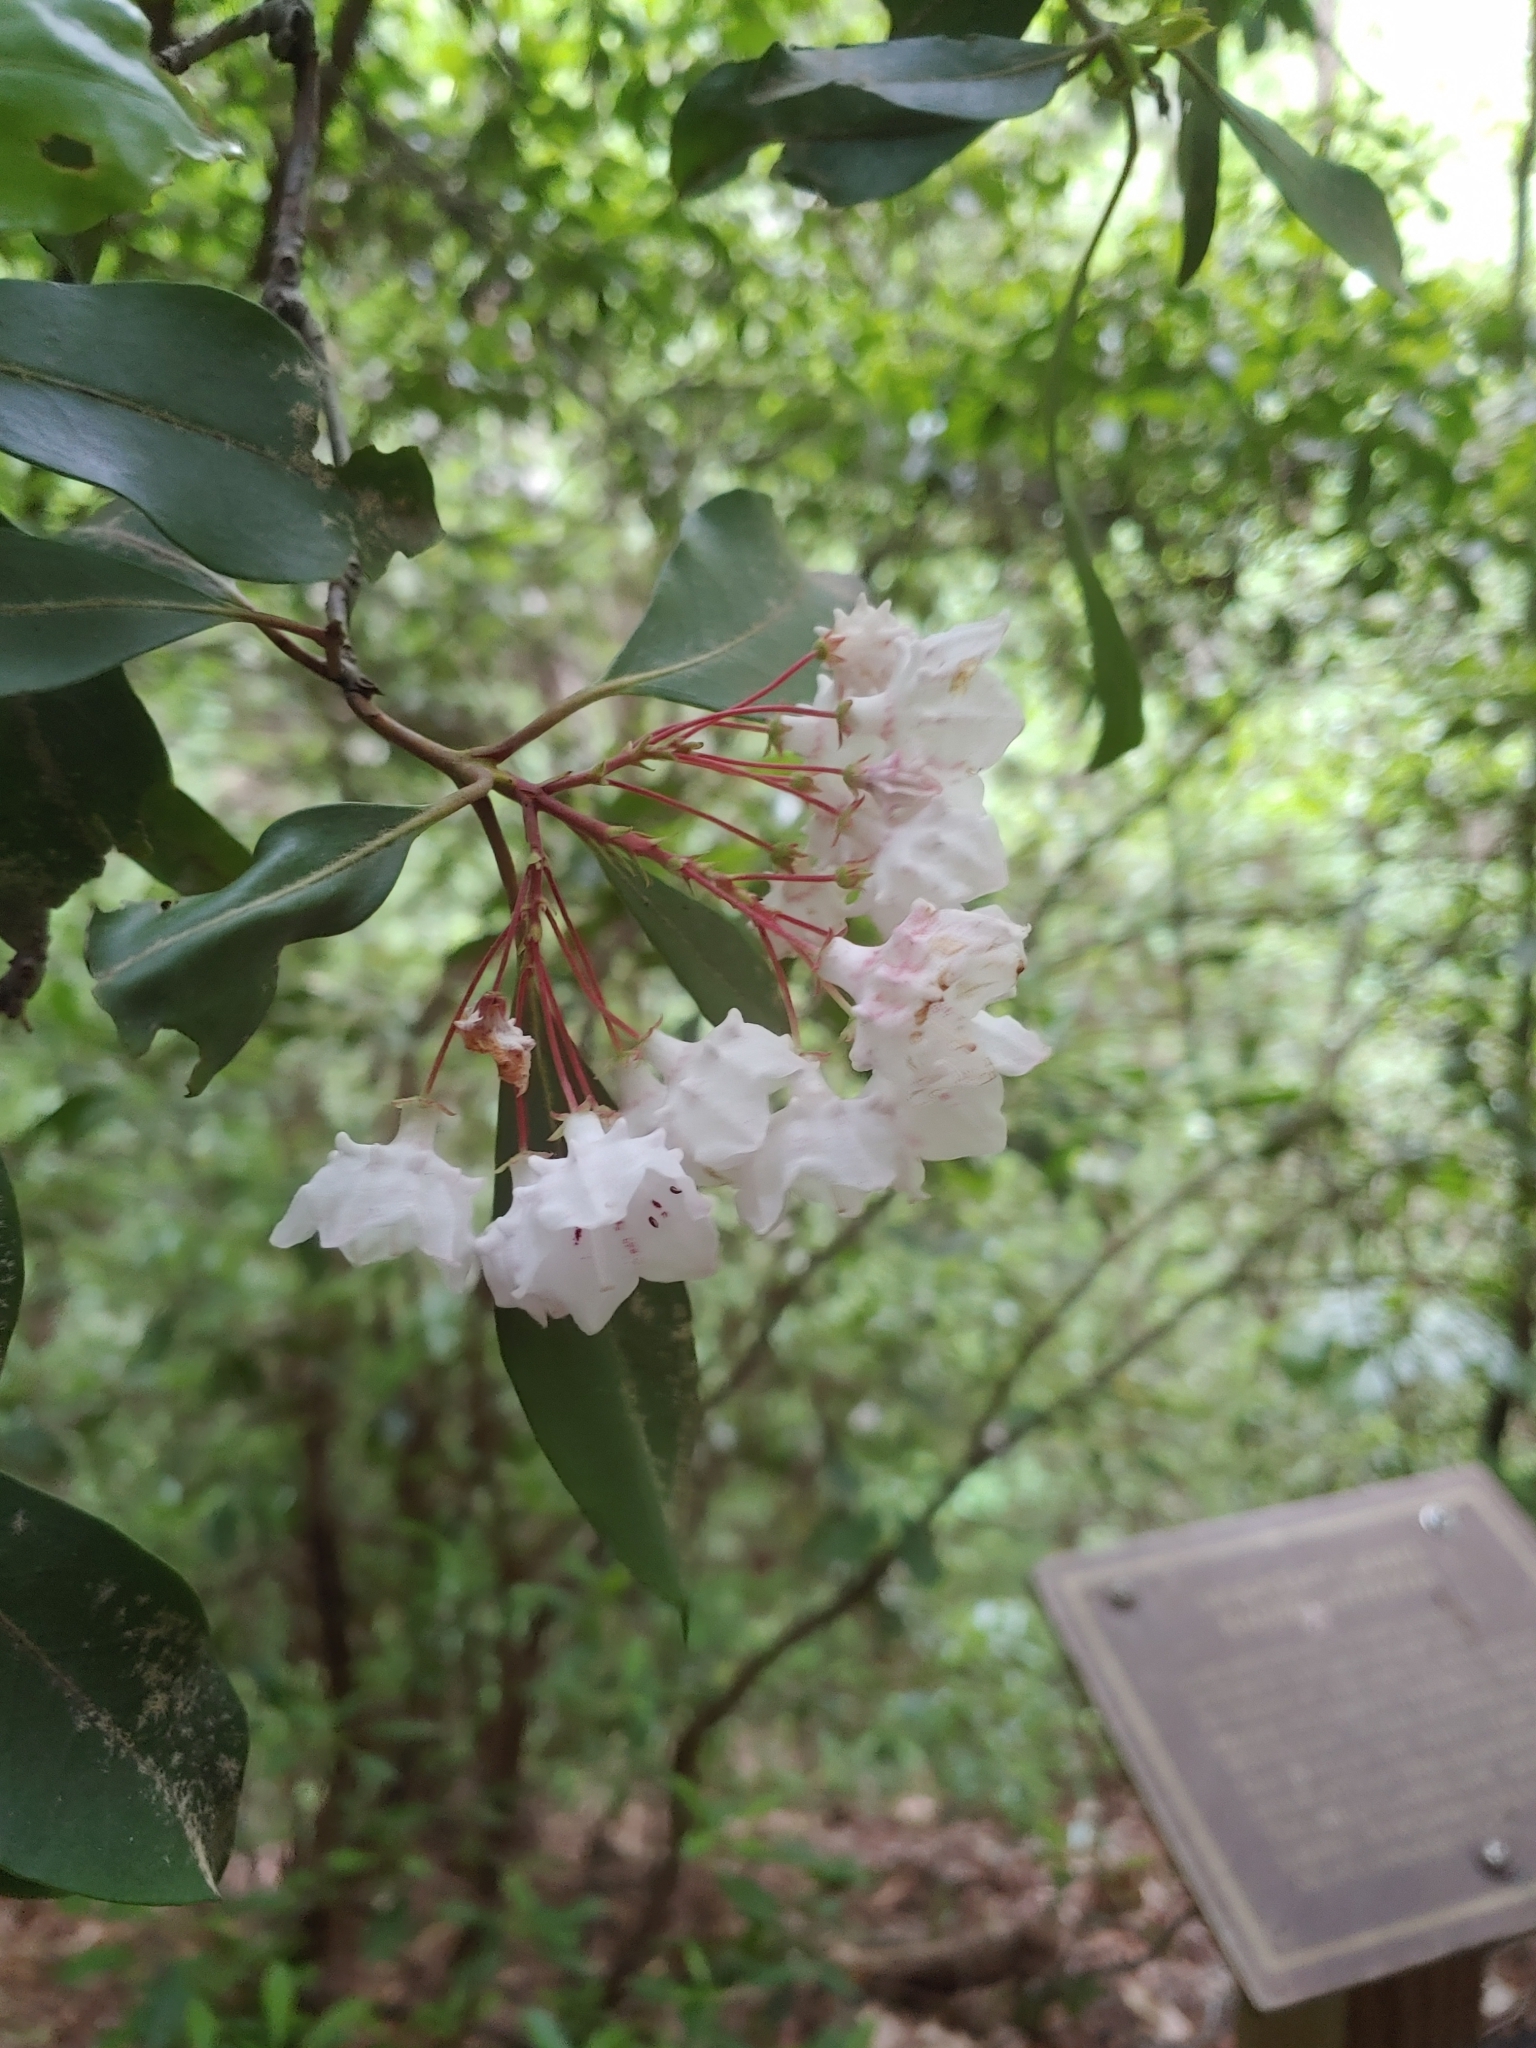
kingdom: Plantae
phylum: Tracheophyta
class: Magnoliopsida
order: Ericales
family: Ericaceae
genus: Kalmia
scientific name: Kalmia latifolia
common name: Mountain-laurel
